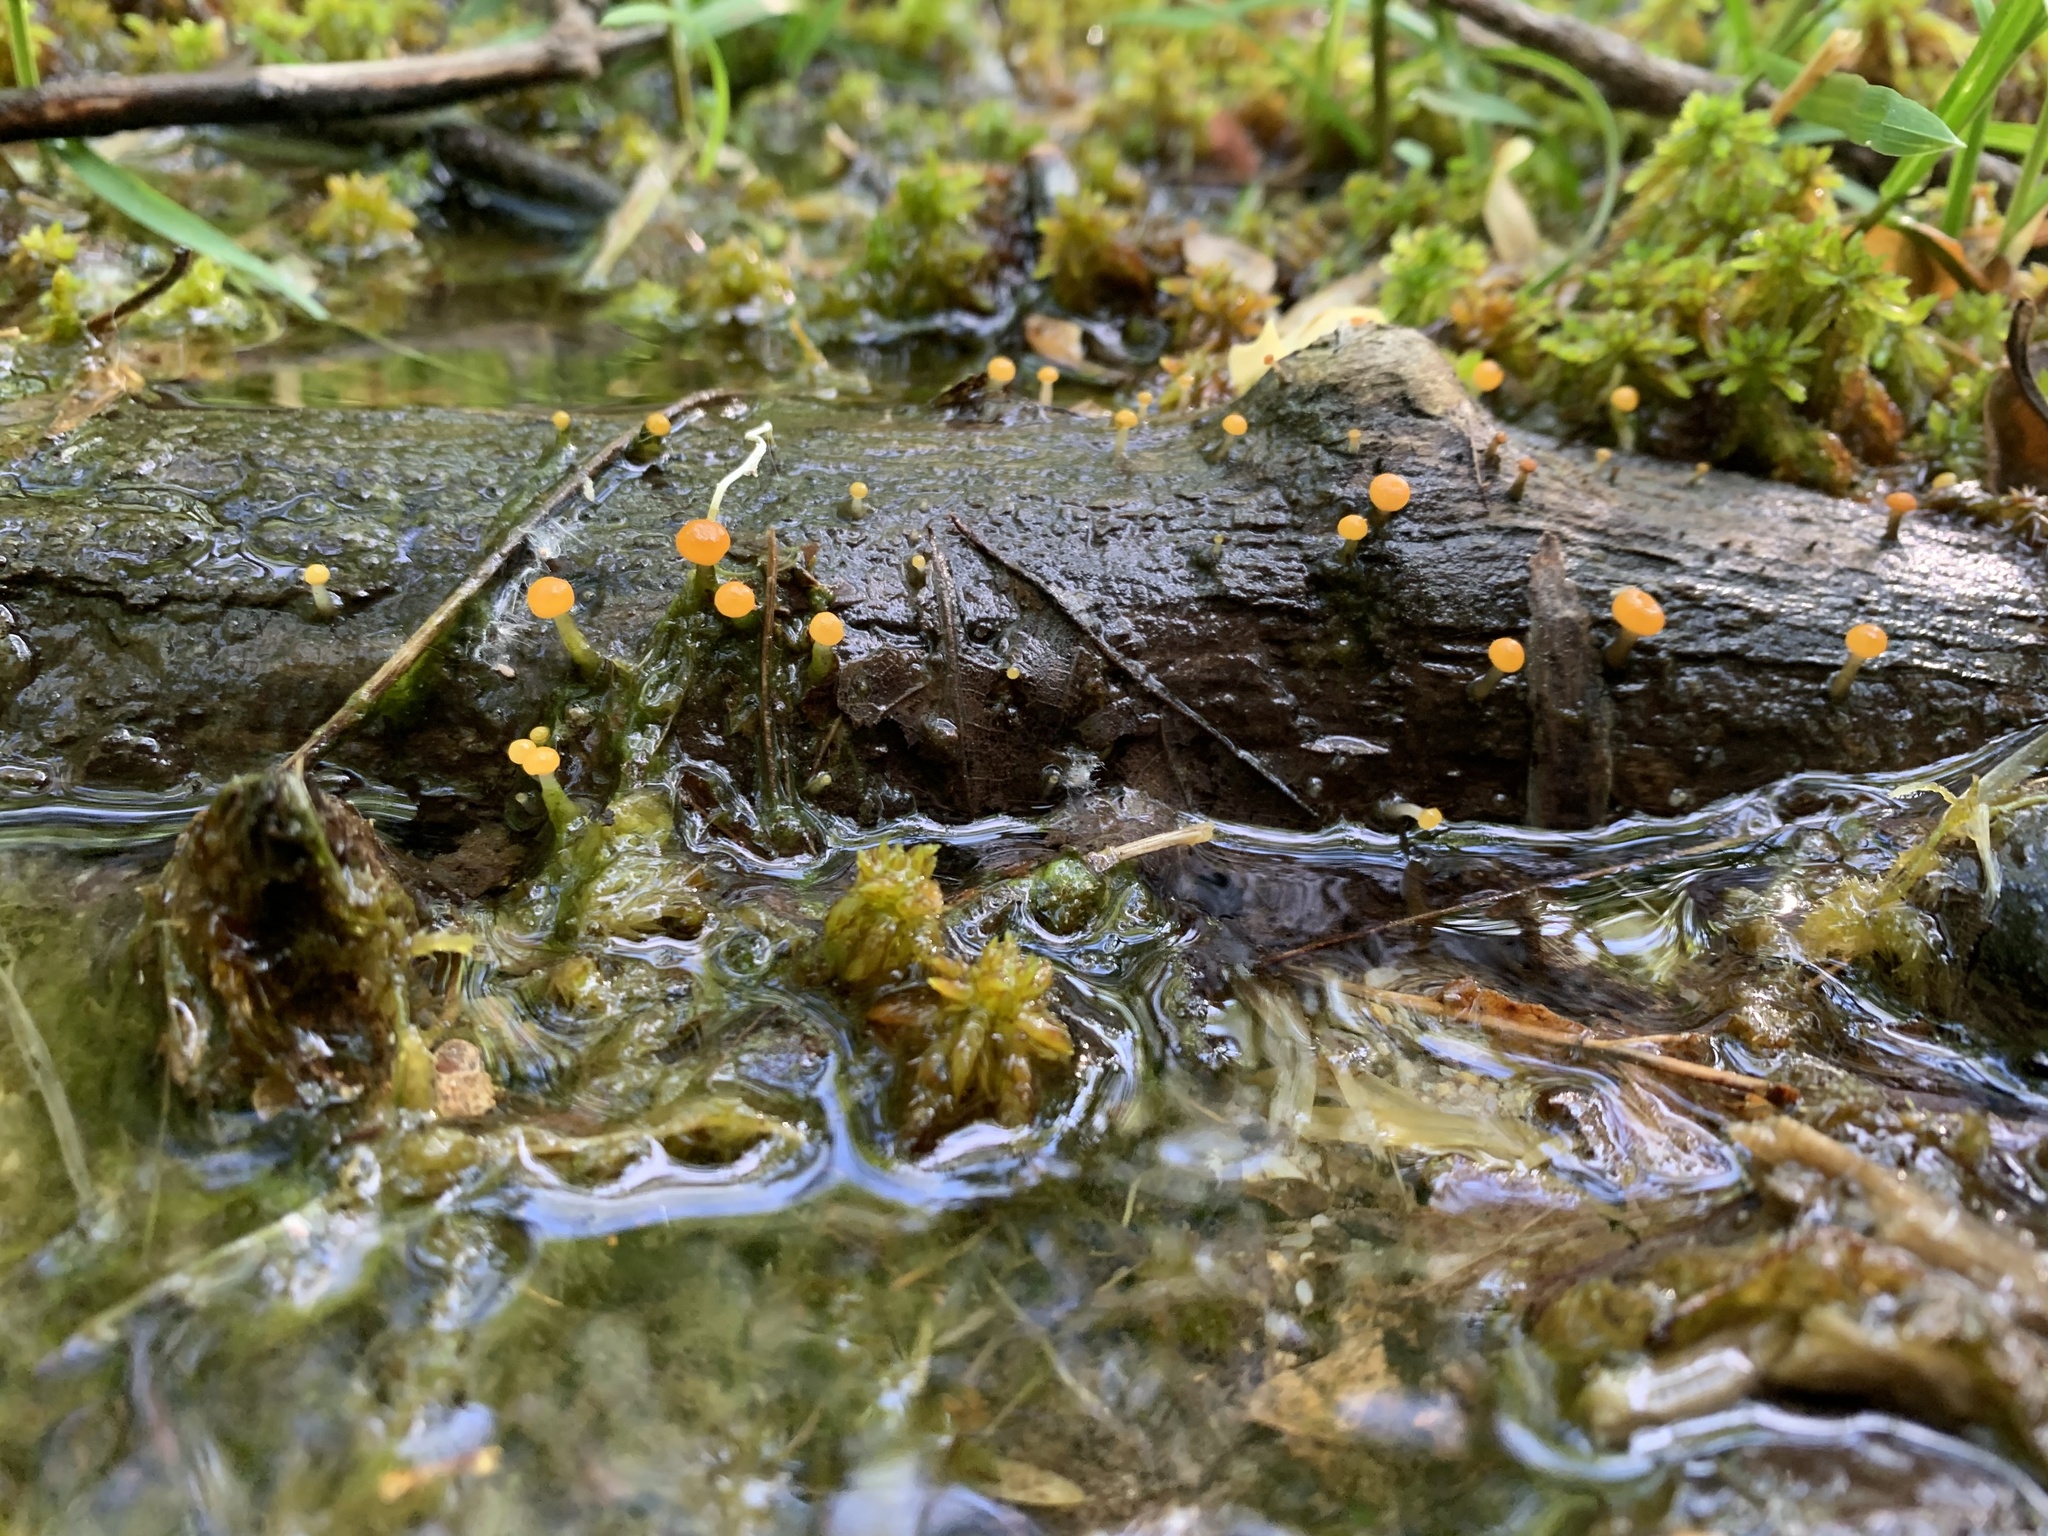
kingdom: Fungi
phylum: Ascomycota
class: Leotiomycetes
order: Helotiales
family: Vibrisseaceae
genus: Vibrissea
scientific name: Vibrissea truncorum
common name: Stream beacon
